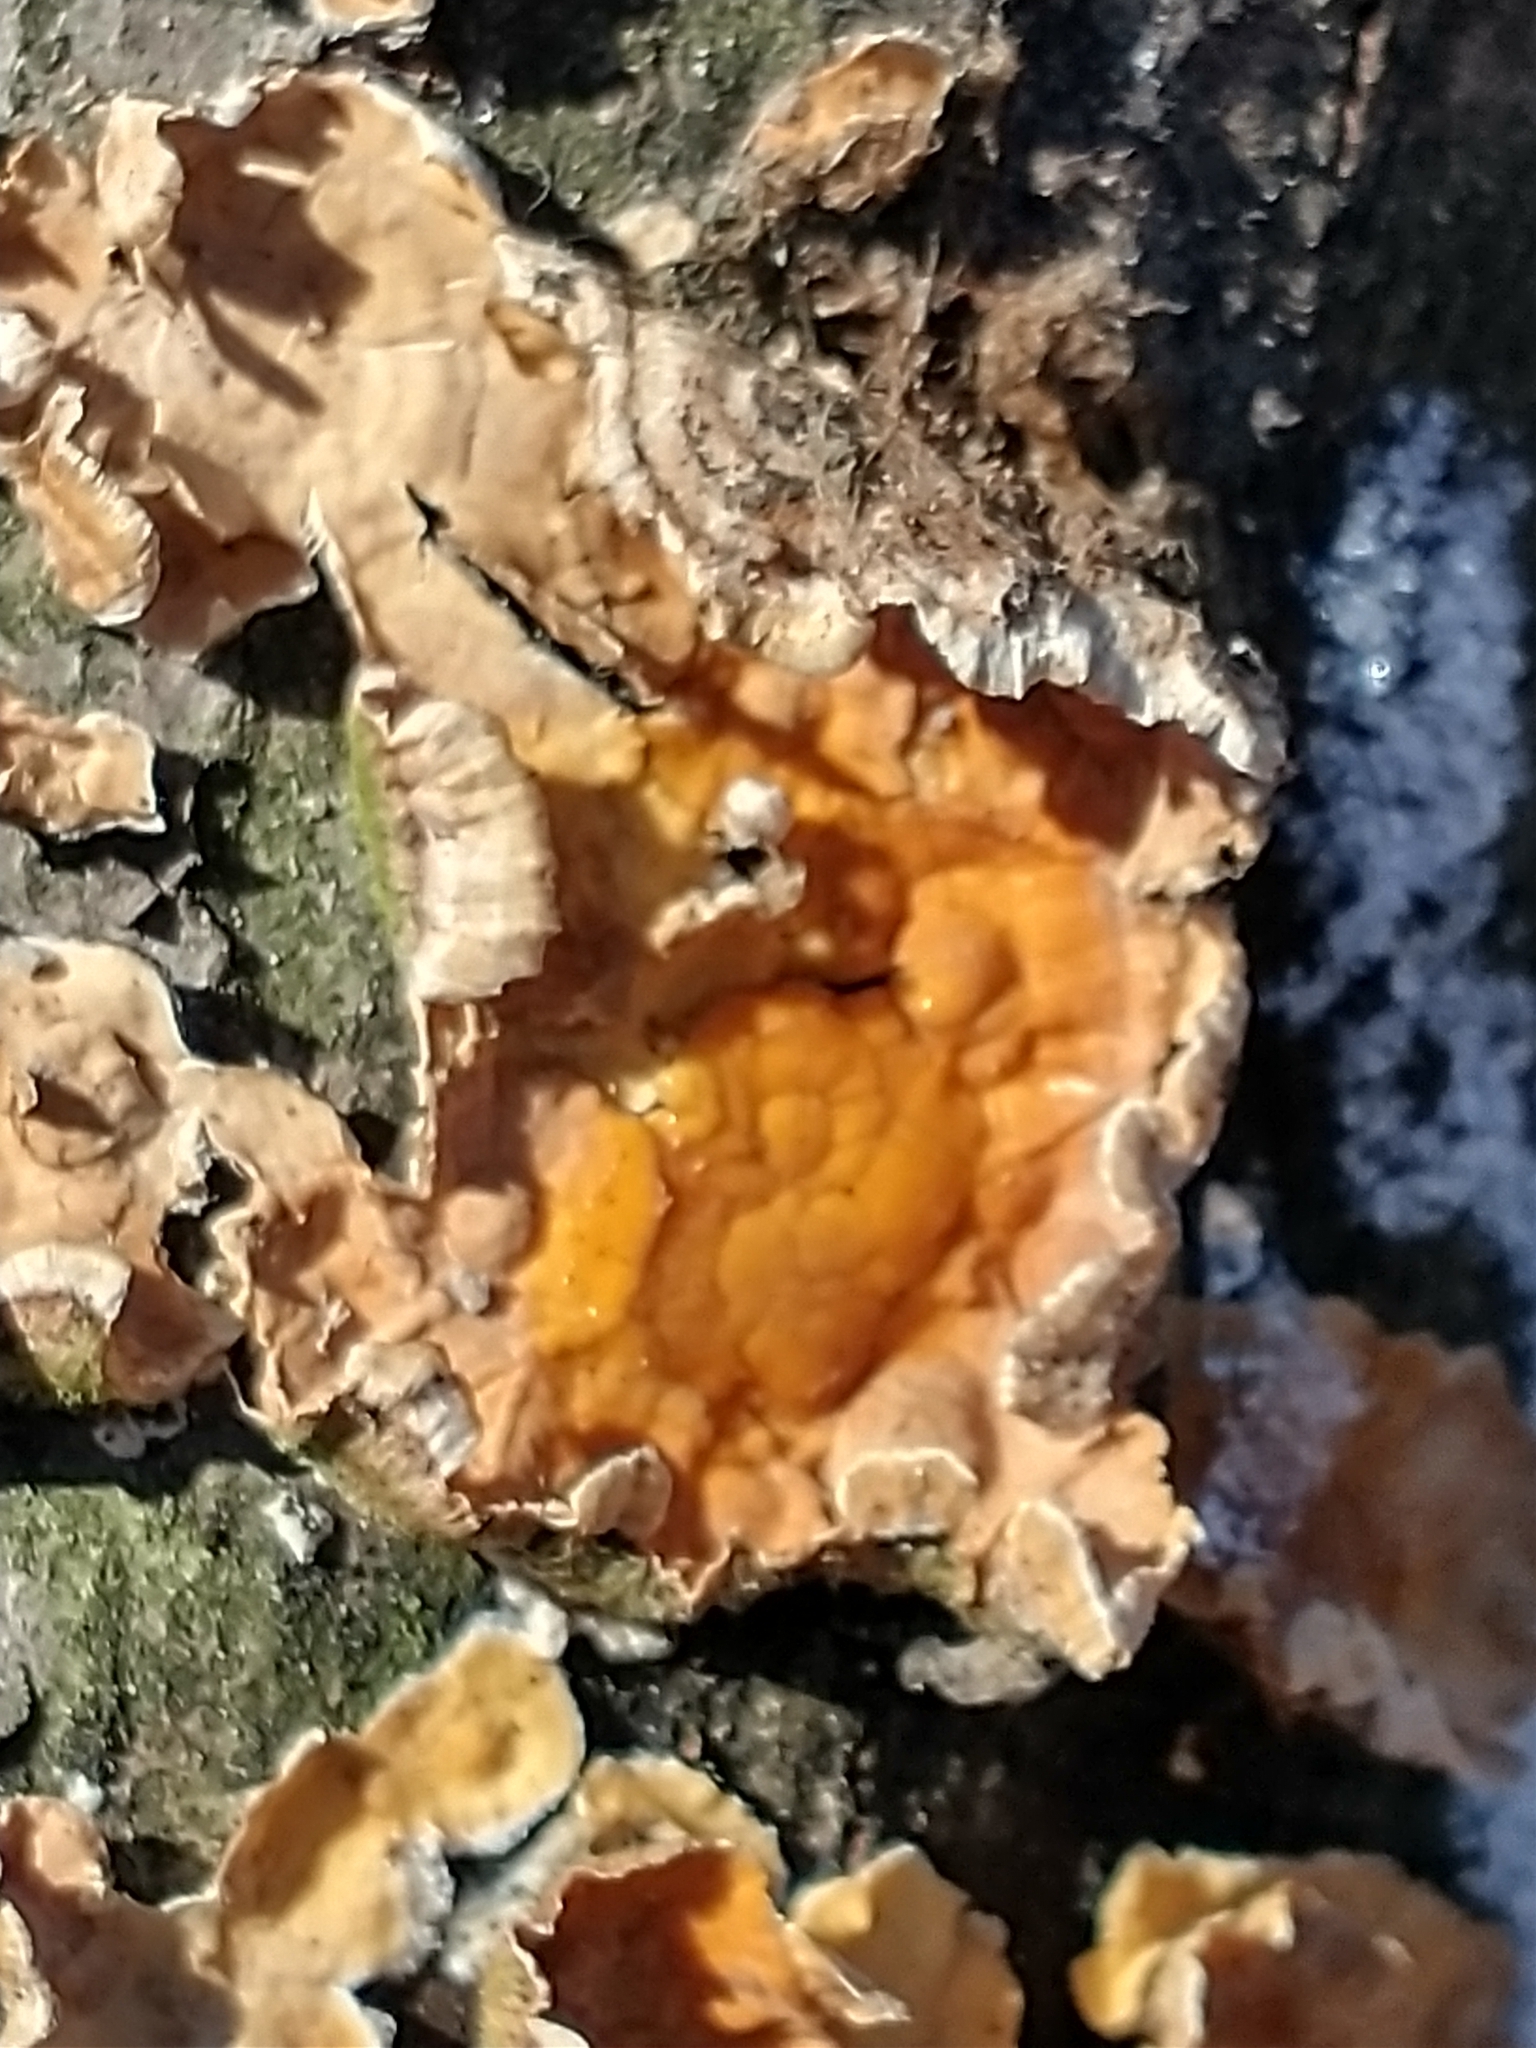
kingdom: Fungi
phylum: Basidiomycota
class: Agaricomycetes
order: Russulales
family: Stereaceae
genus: Stereum
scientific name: Stereum complicatum
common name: Crowded parchment
